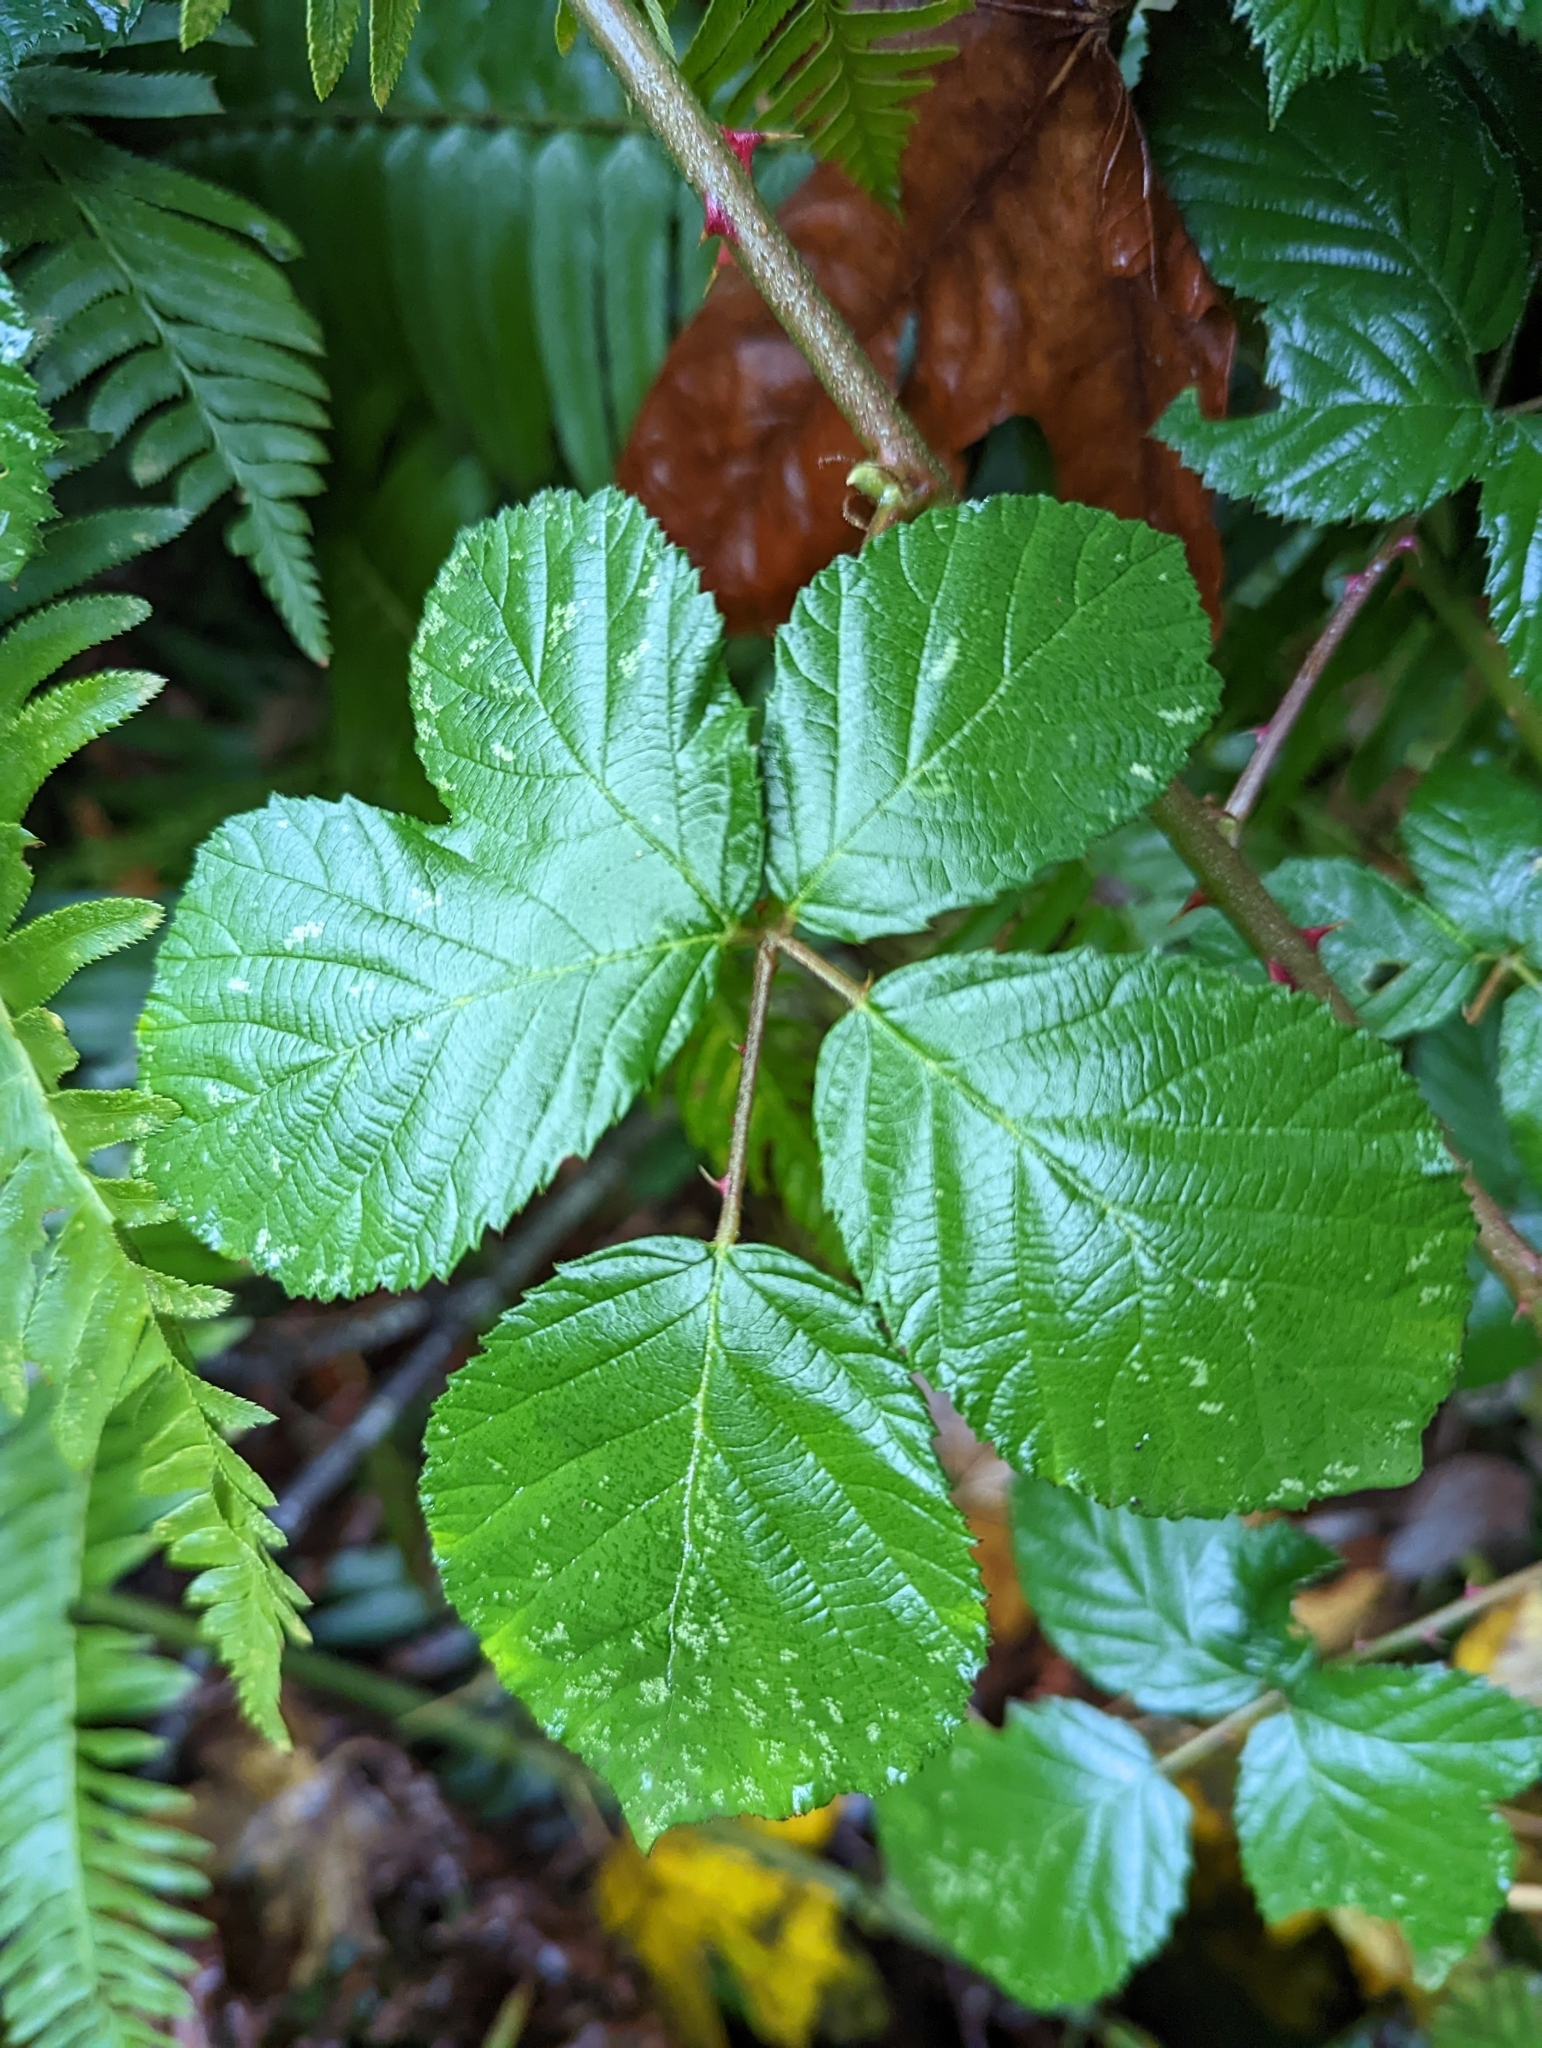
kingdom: Plantae
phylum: Tracheophyta
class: Magnoliopsida
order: Rosales
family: Rosaceae
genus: Rubus
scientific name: Rubus bifrons
